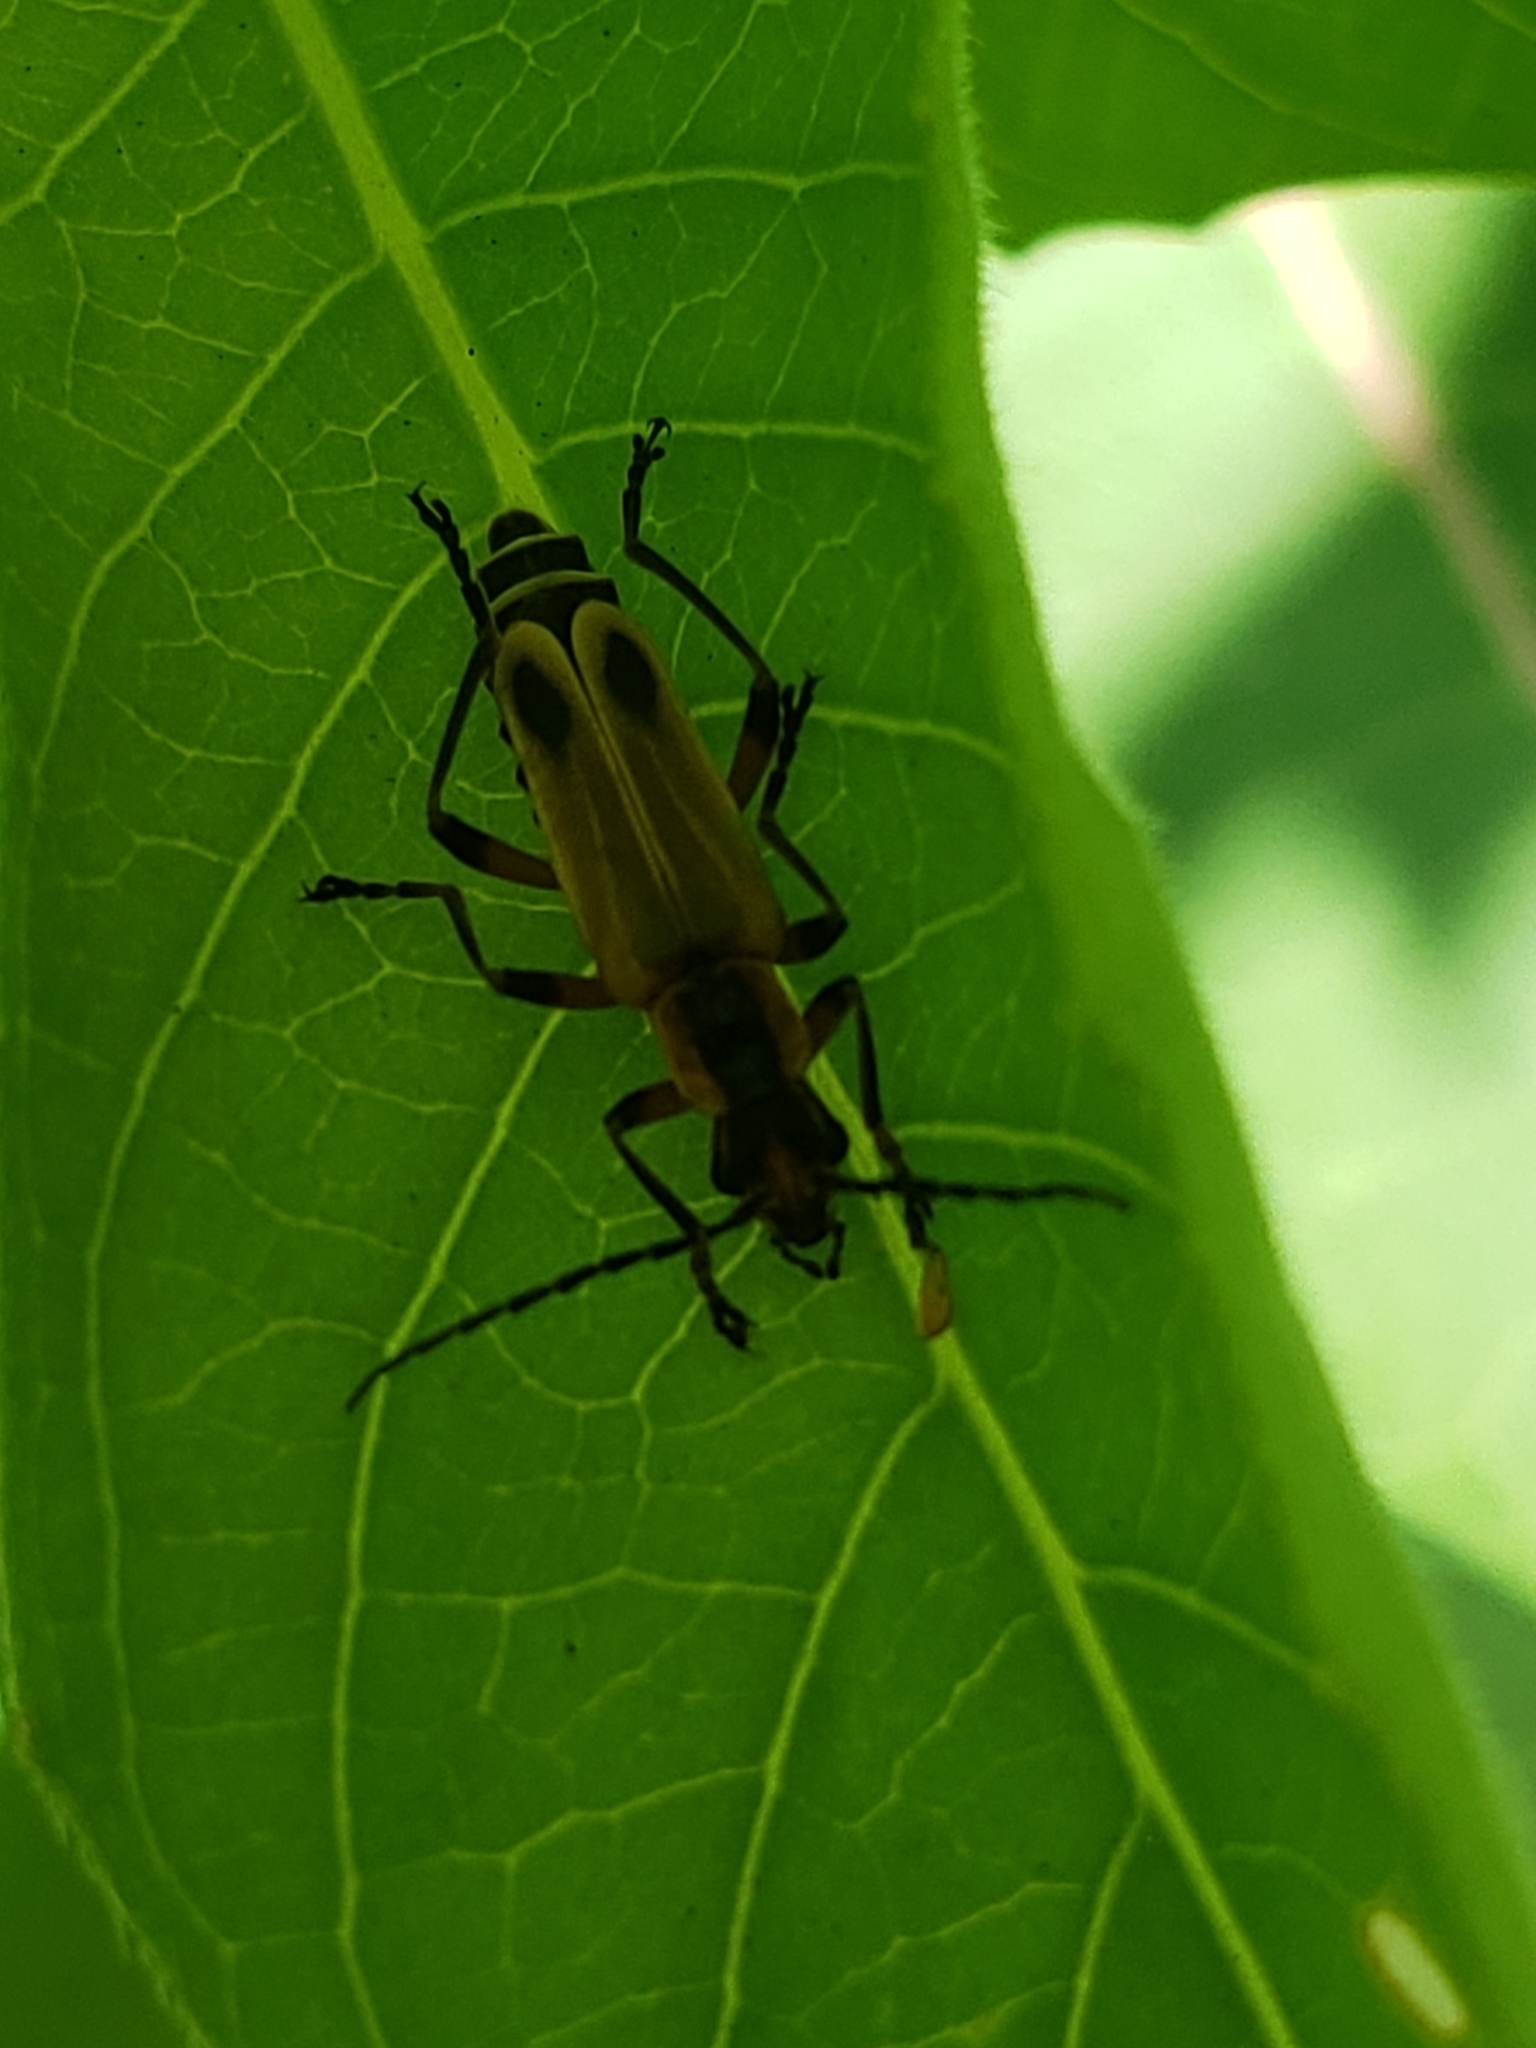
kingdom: Animalia
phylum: Arthropoda
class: Insecta
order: Coleoptera
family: Cantharidae
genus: Chauliognathus
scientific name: Chauliognathus marginatus
